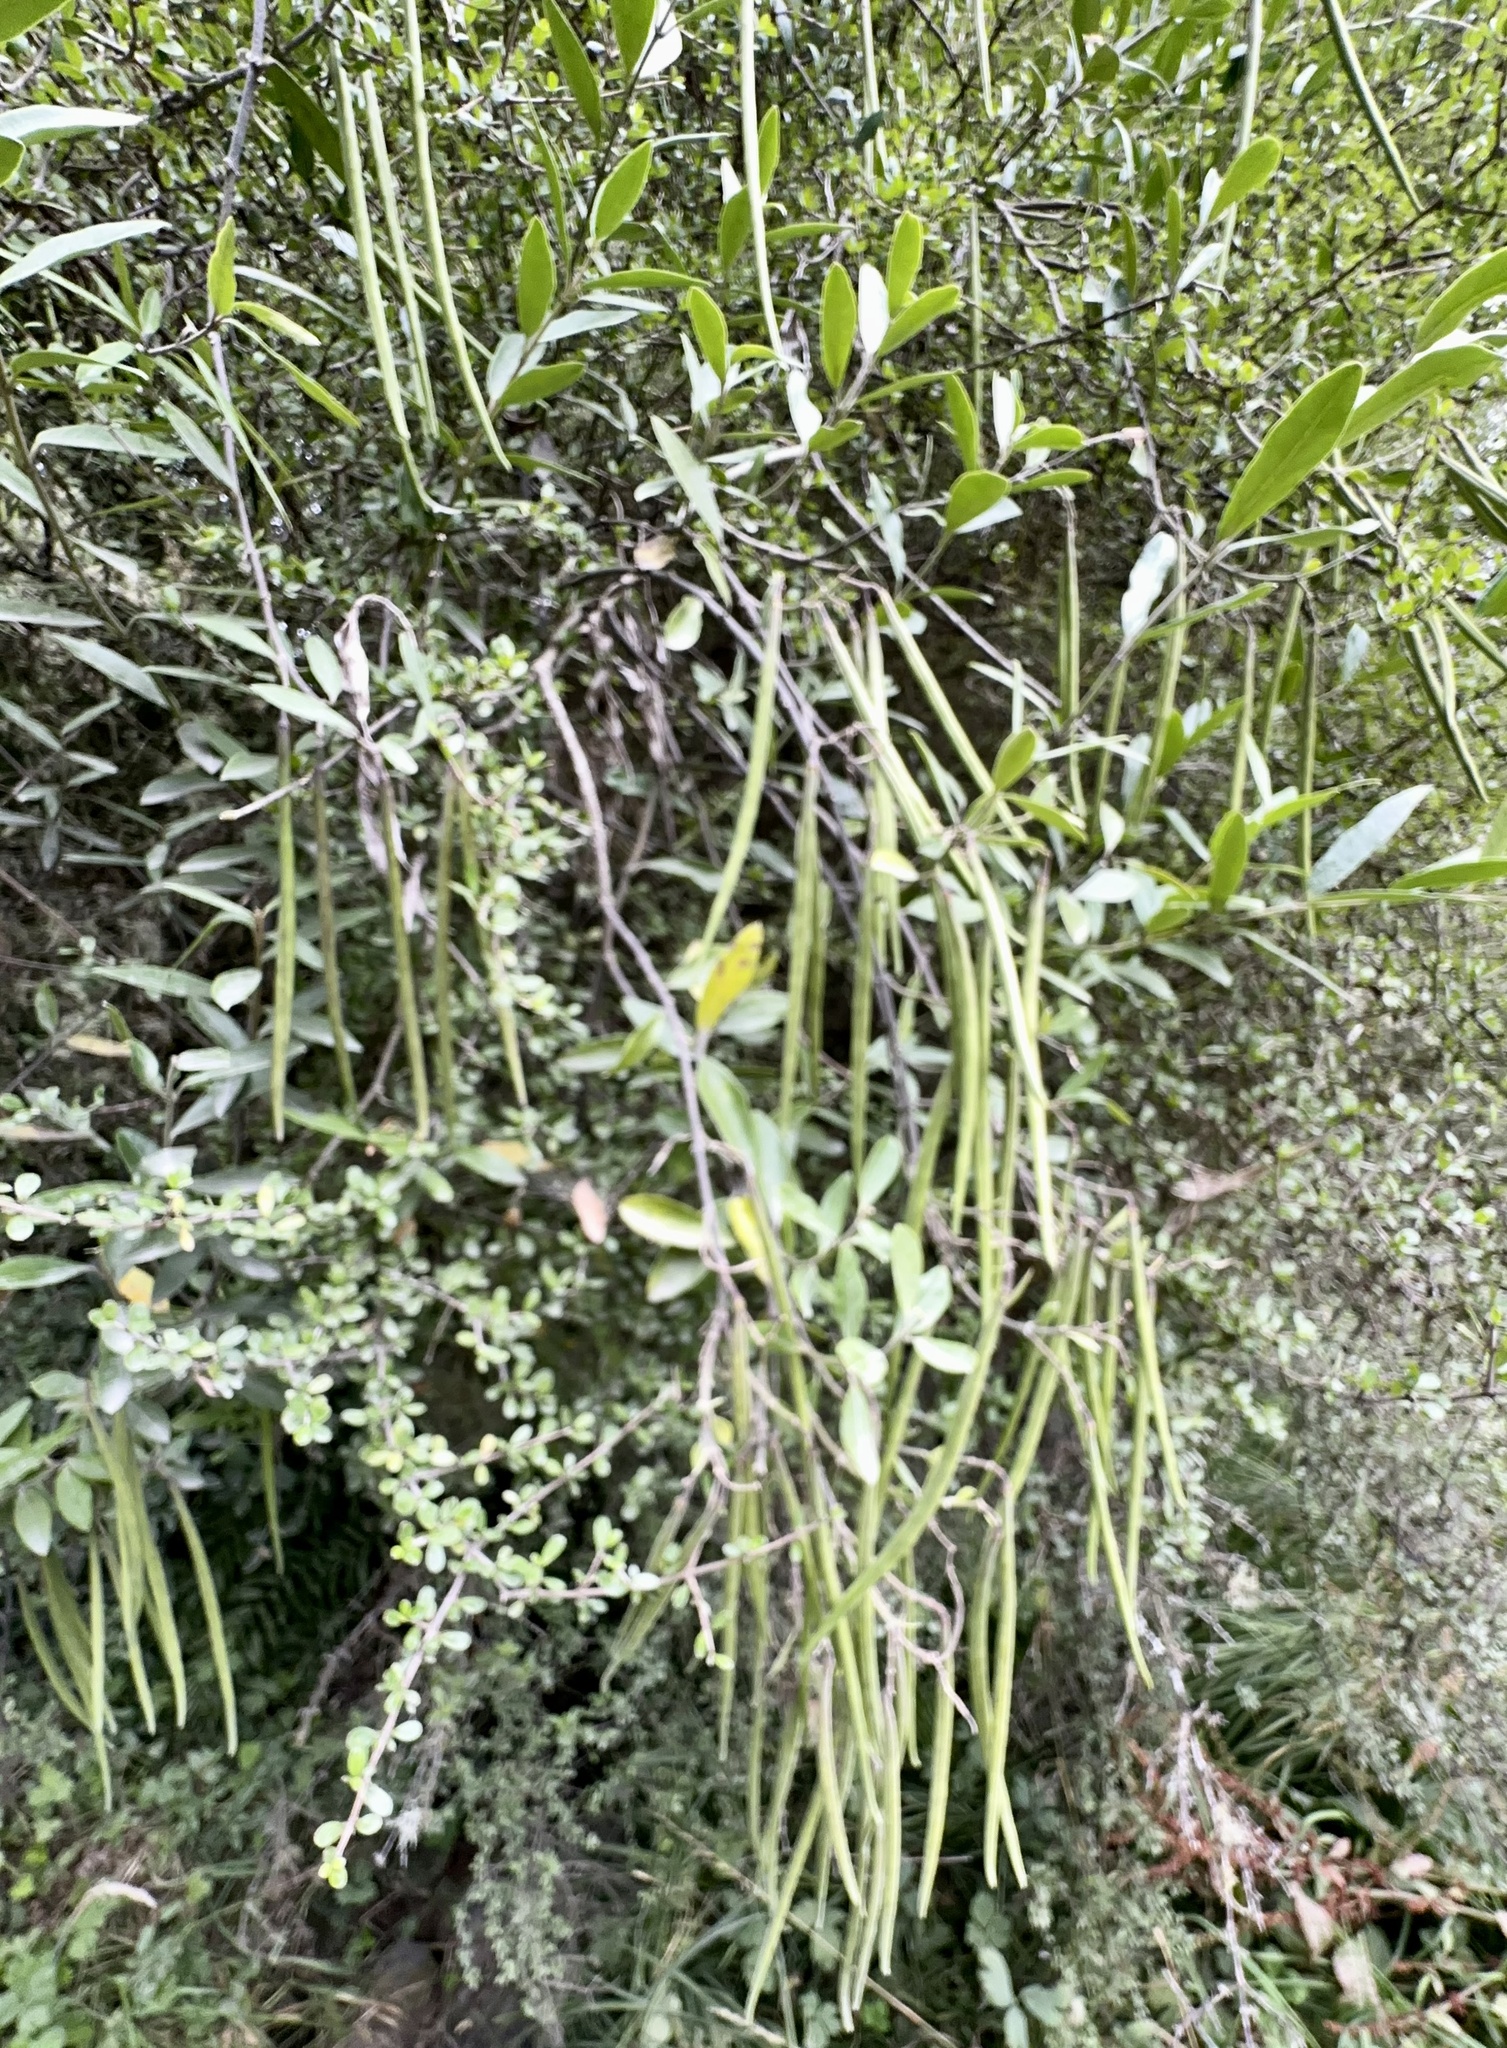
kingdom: Plantae
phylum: Tracheophyta
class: Magnoliopsida
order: Gentianales
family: Apocynaceae
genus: Parsonsia
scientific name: Parsonsia heterophylla
